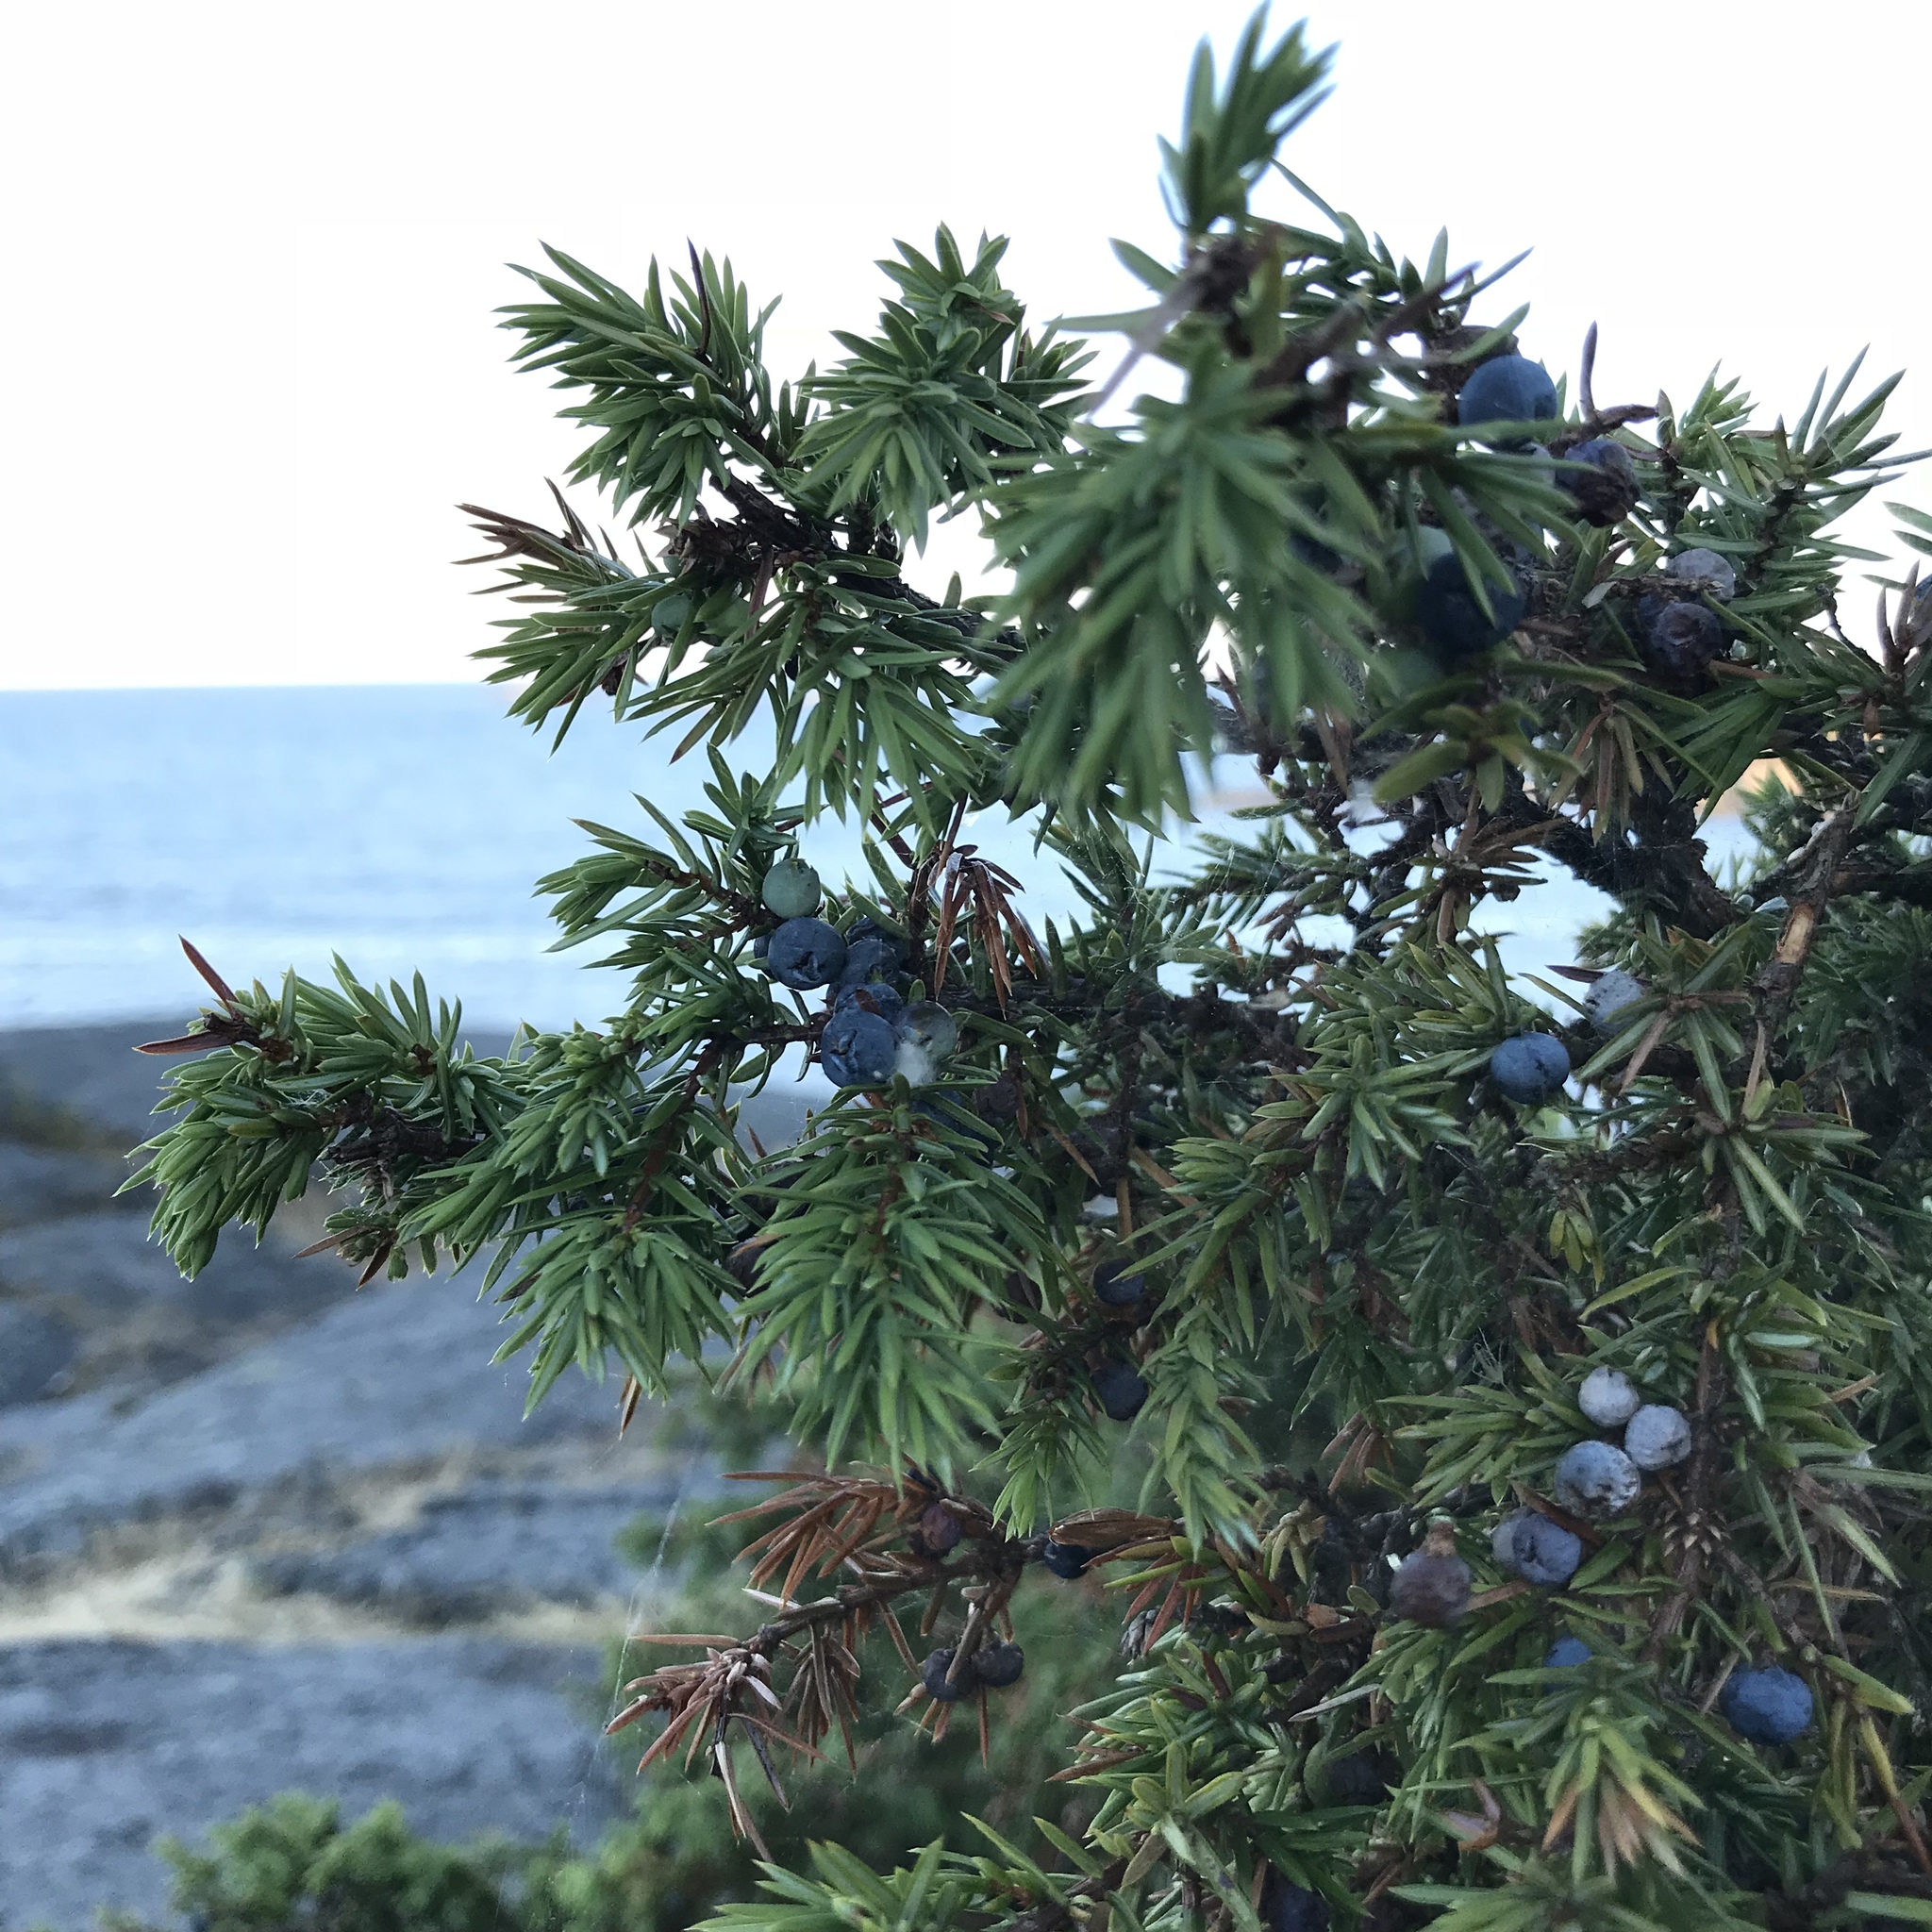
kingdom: Plantae
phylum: Tracheophyta
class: Pinopsida
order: Pinales
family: Cupressaceae
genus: Juniperus
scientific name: Juniperus communis
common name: Common juniper
